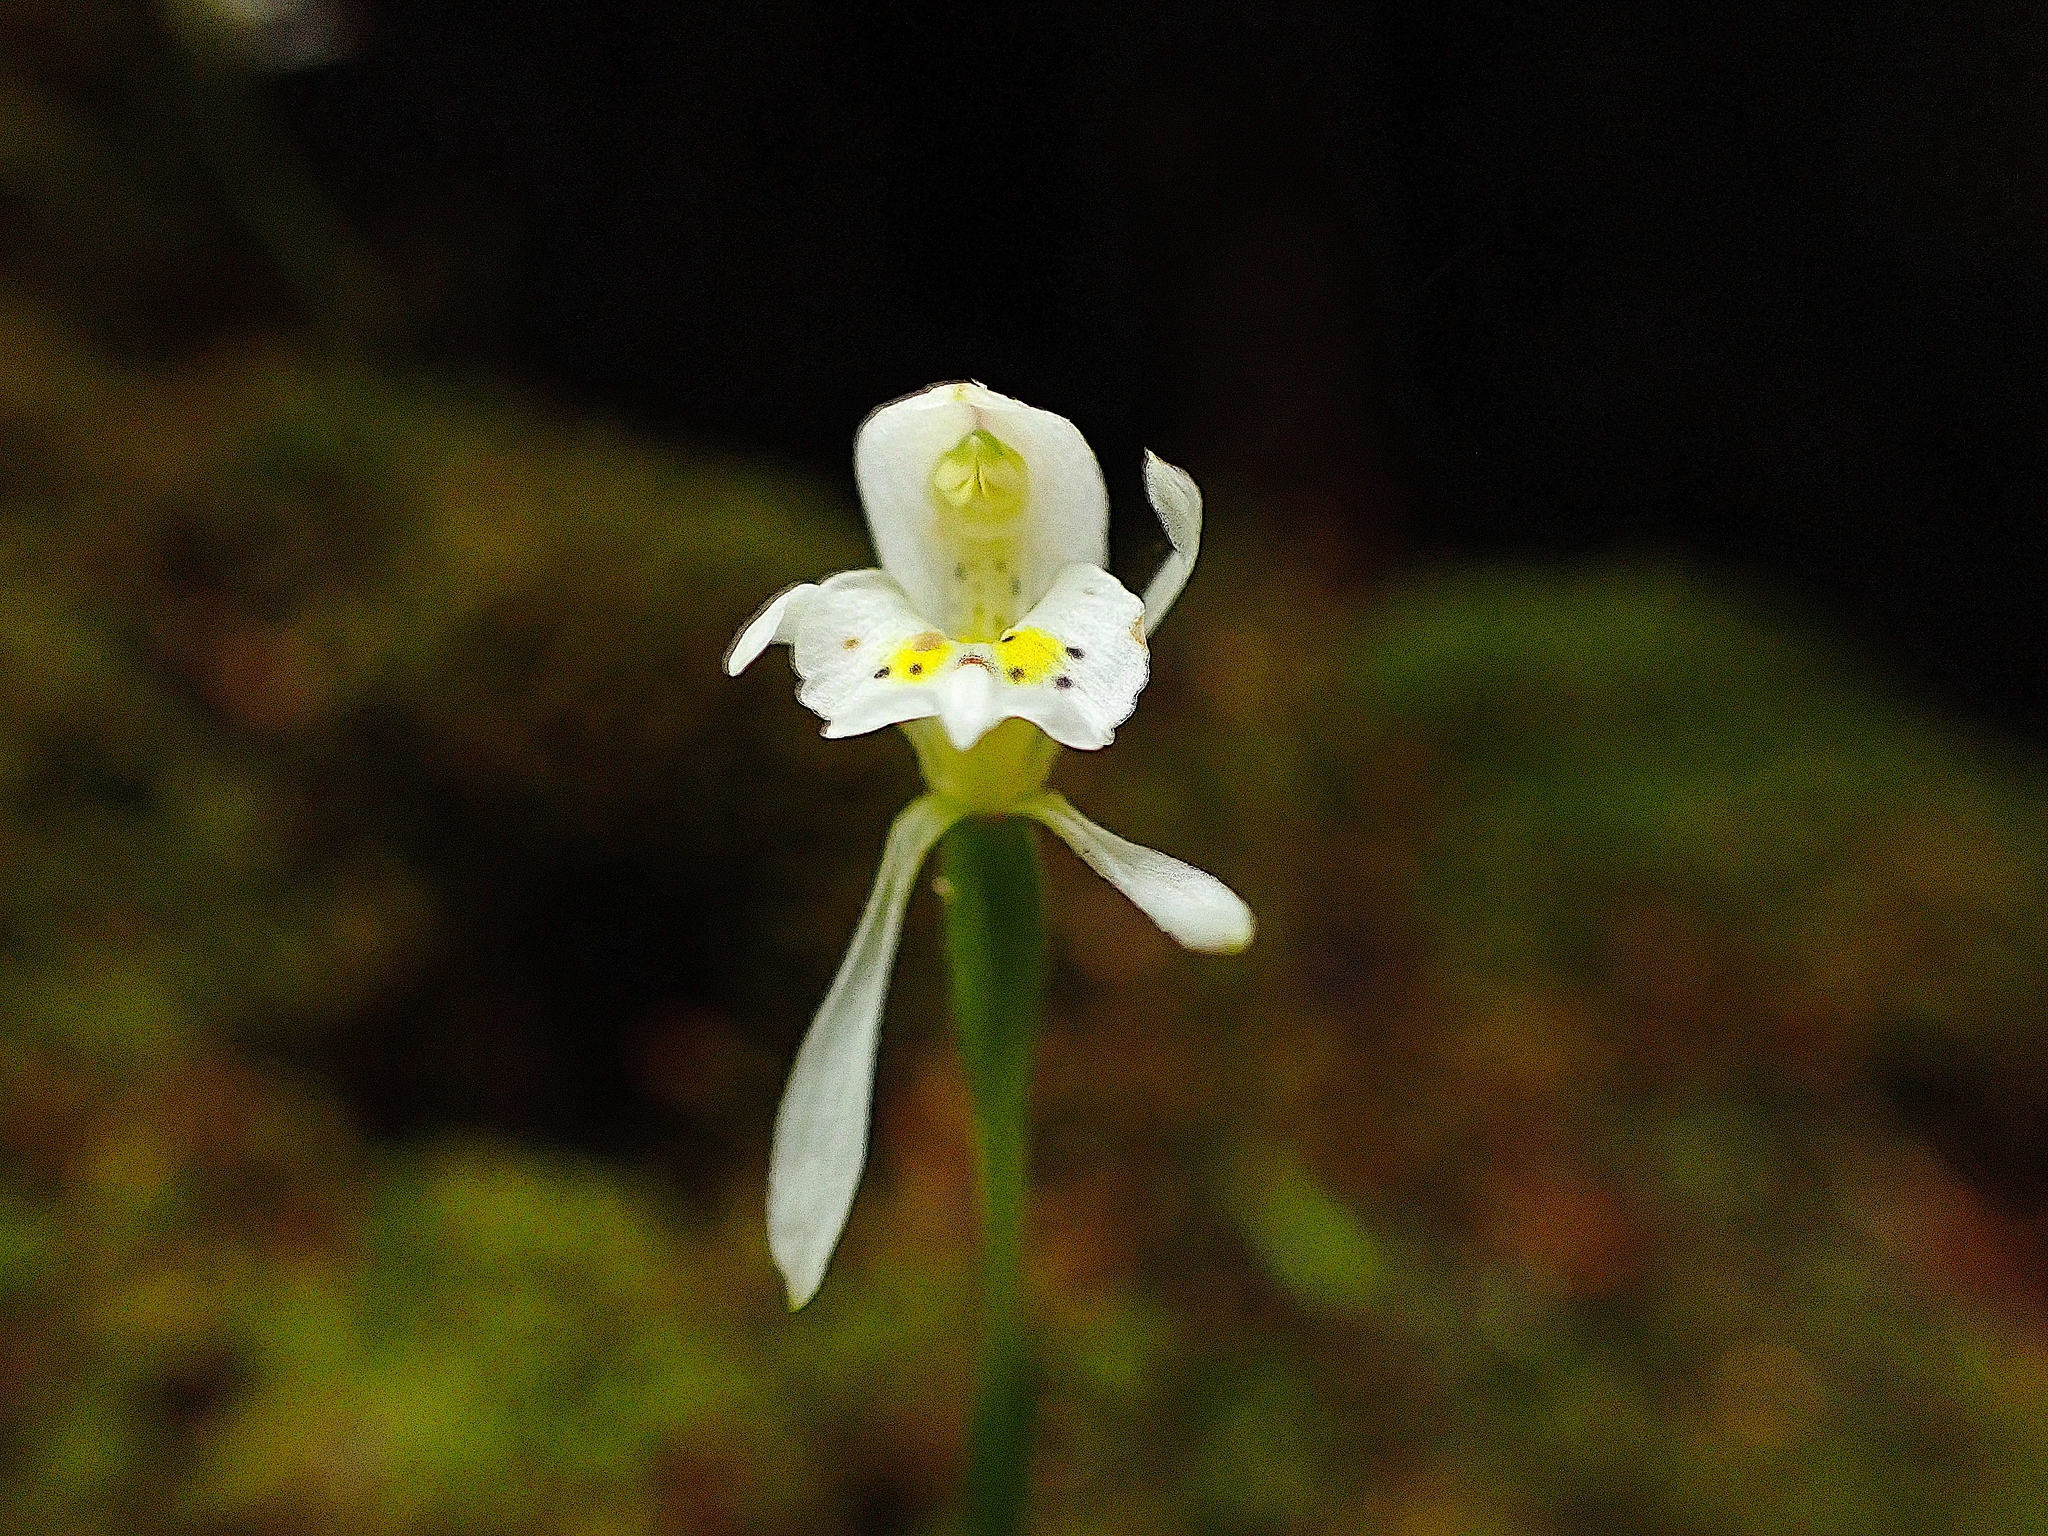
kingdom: Plantae
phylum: Tracheophyta
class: Liliopsida
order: Asparagales
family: Orchidaceae
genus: Aporostylis
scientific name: Aporostylis bifolia
